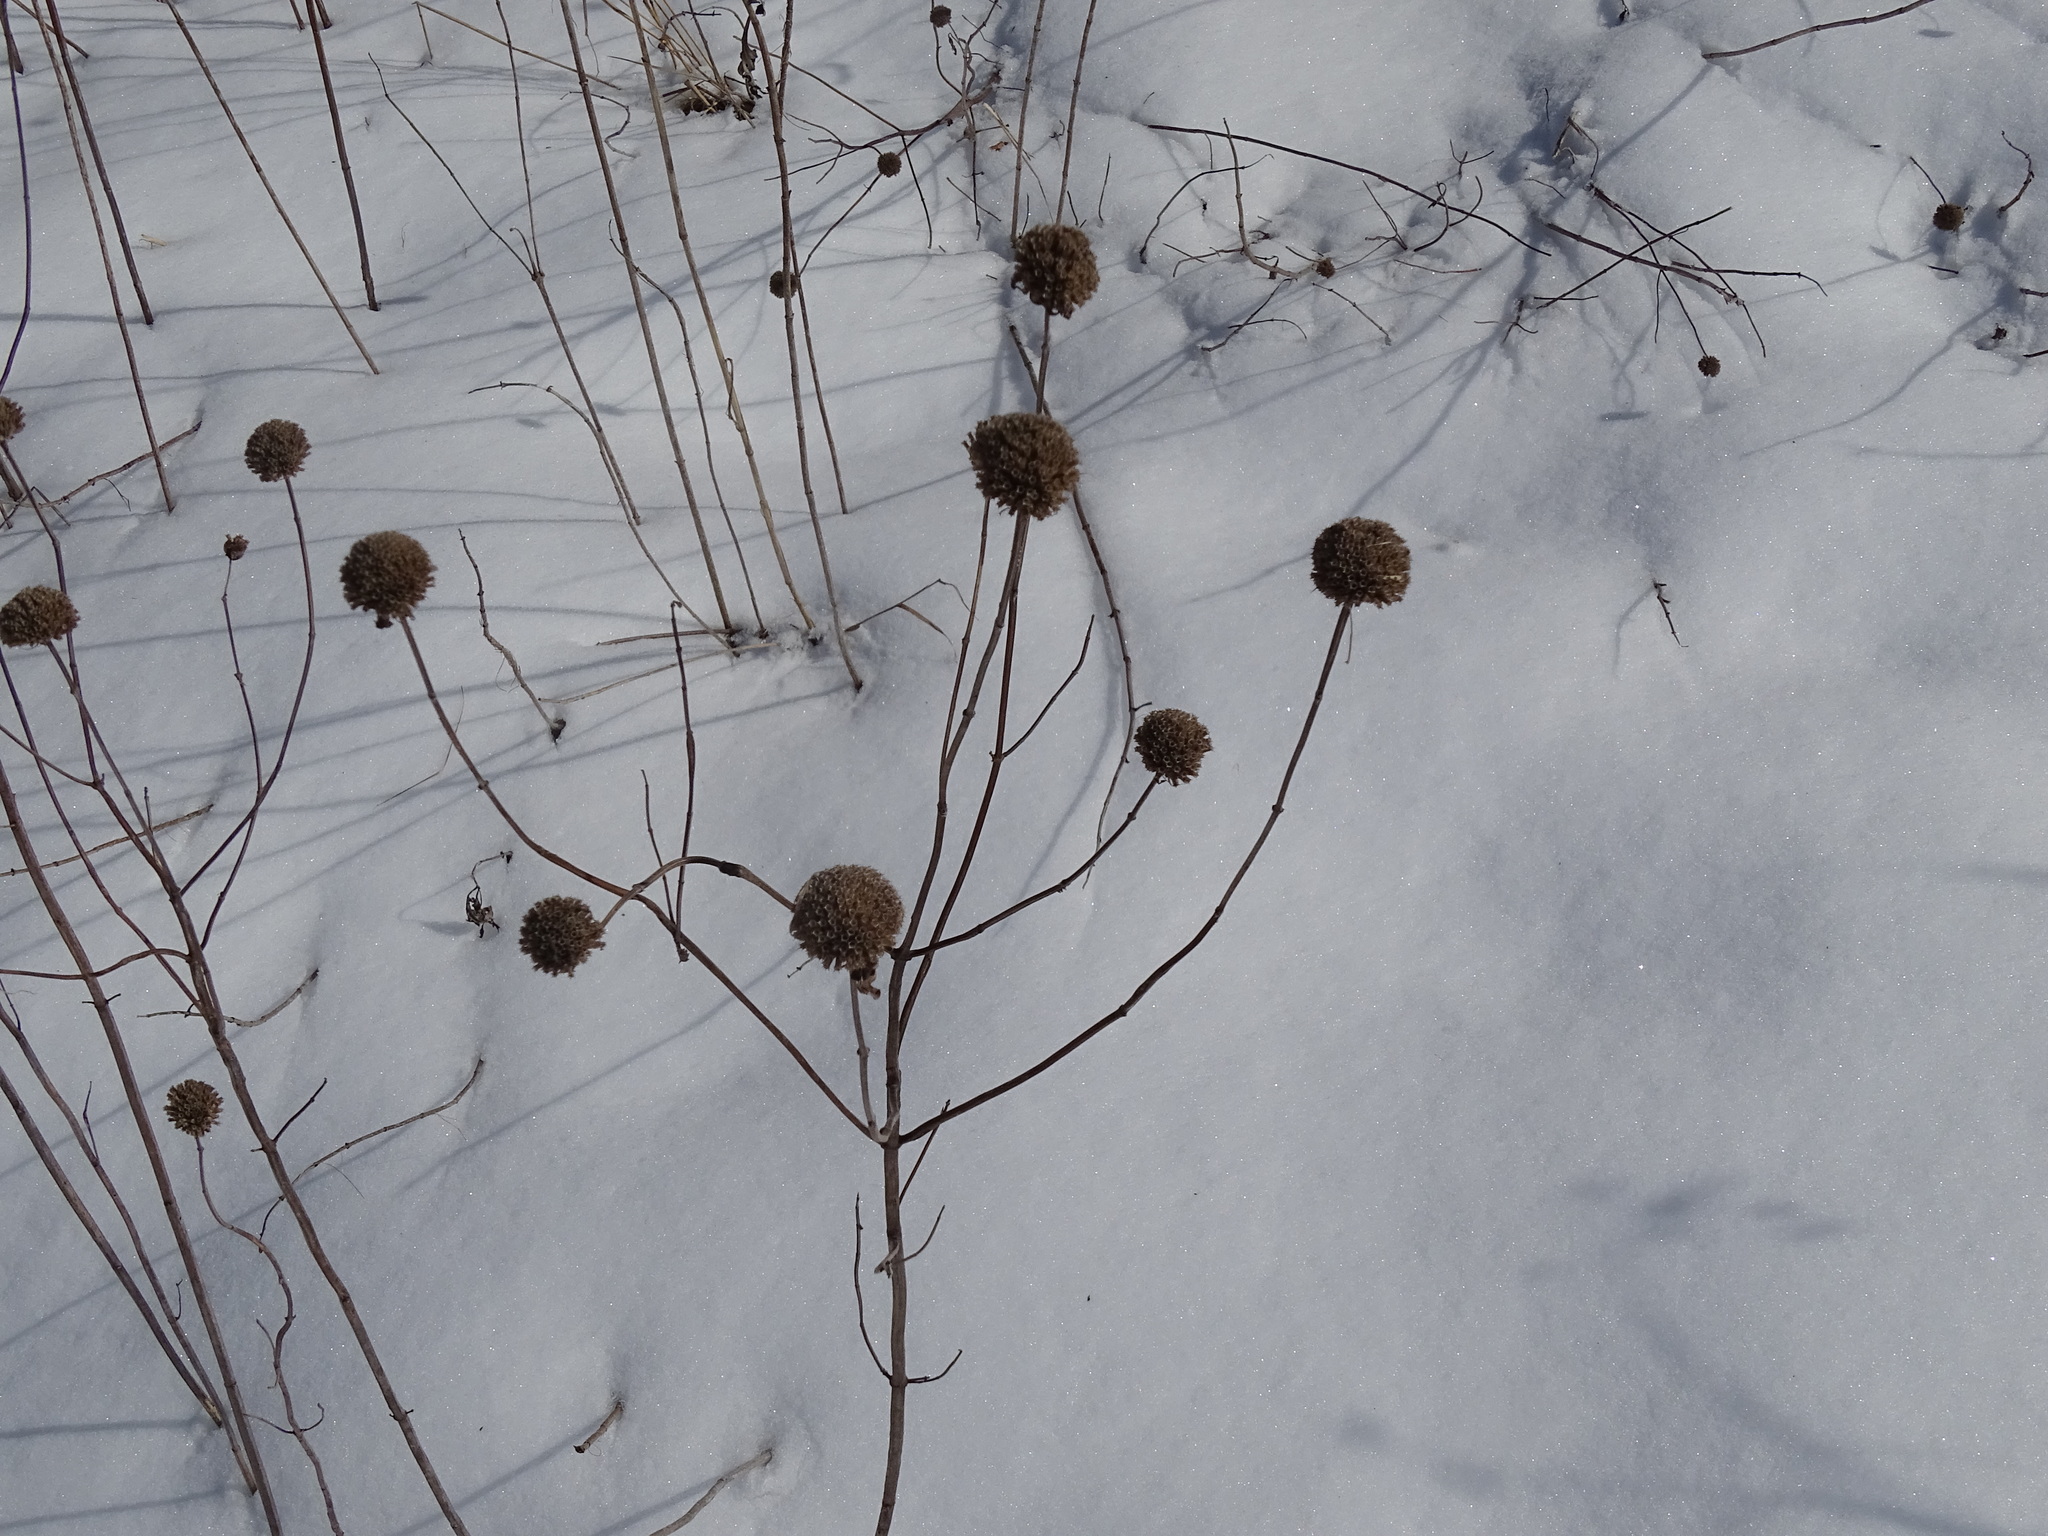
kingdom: Plantae
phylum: Tracheophyta
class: Magnoliopsida
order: Lamiales
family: Lamiaceae
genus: Monarda
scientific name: Monarda fistulosa
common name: Purple beebalm
